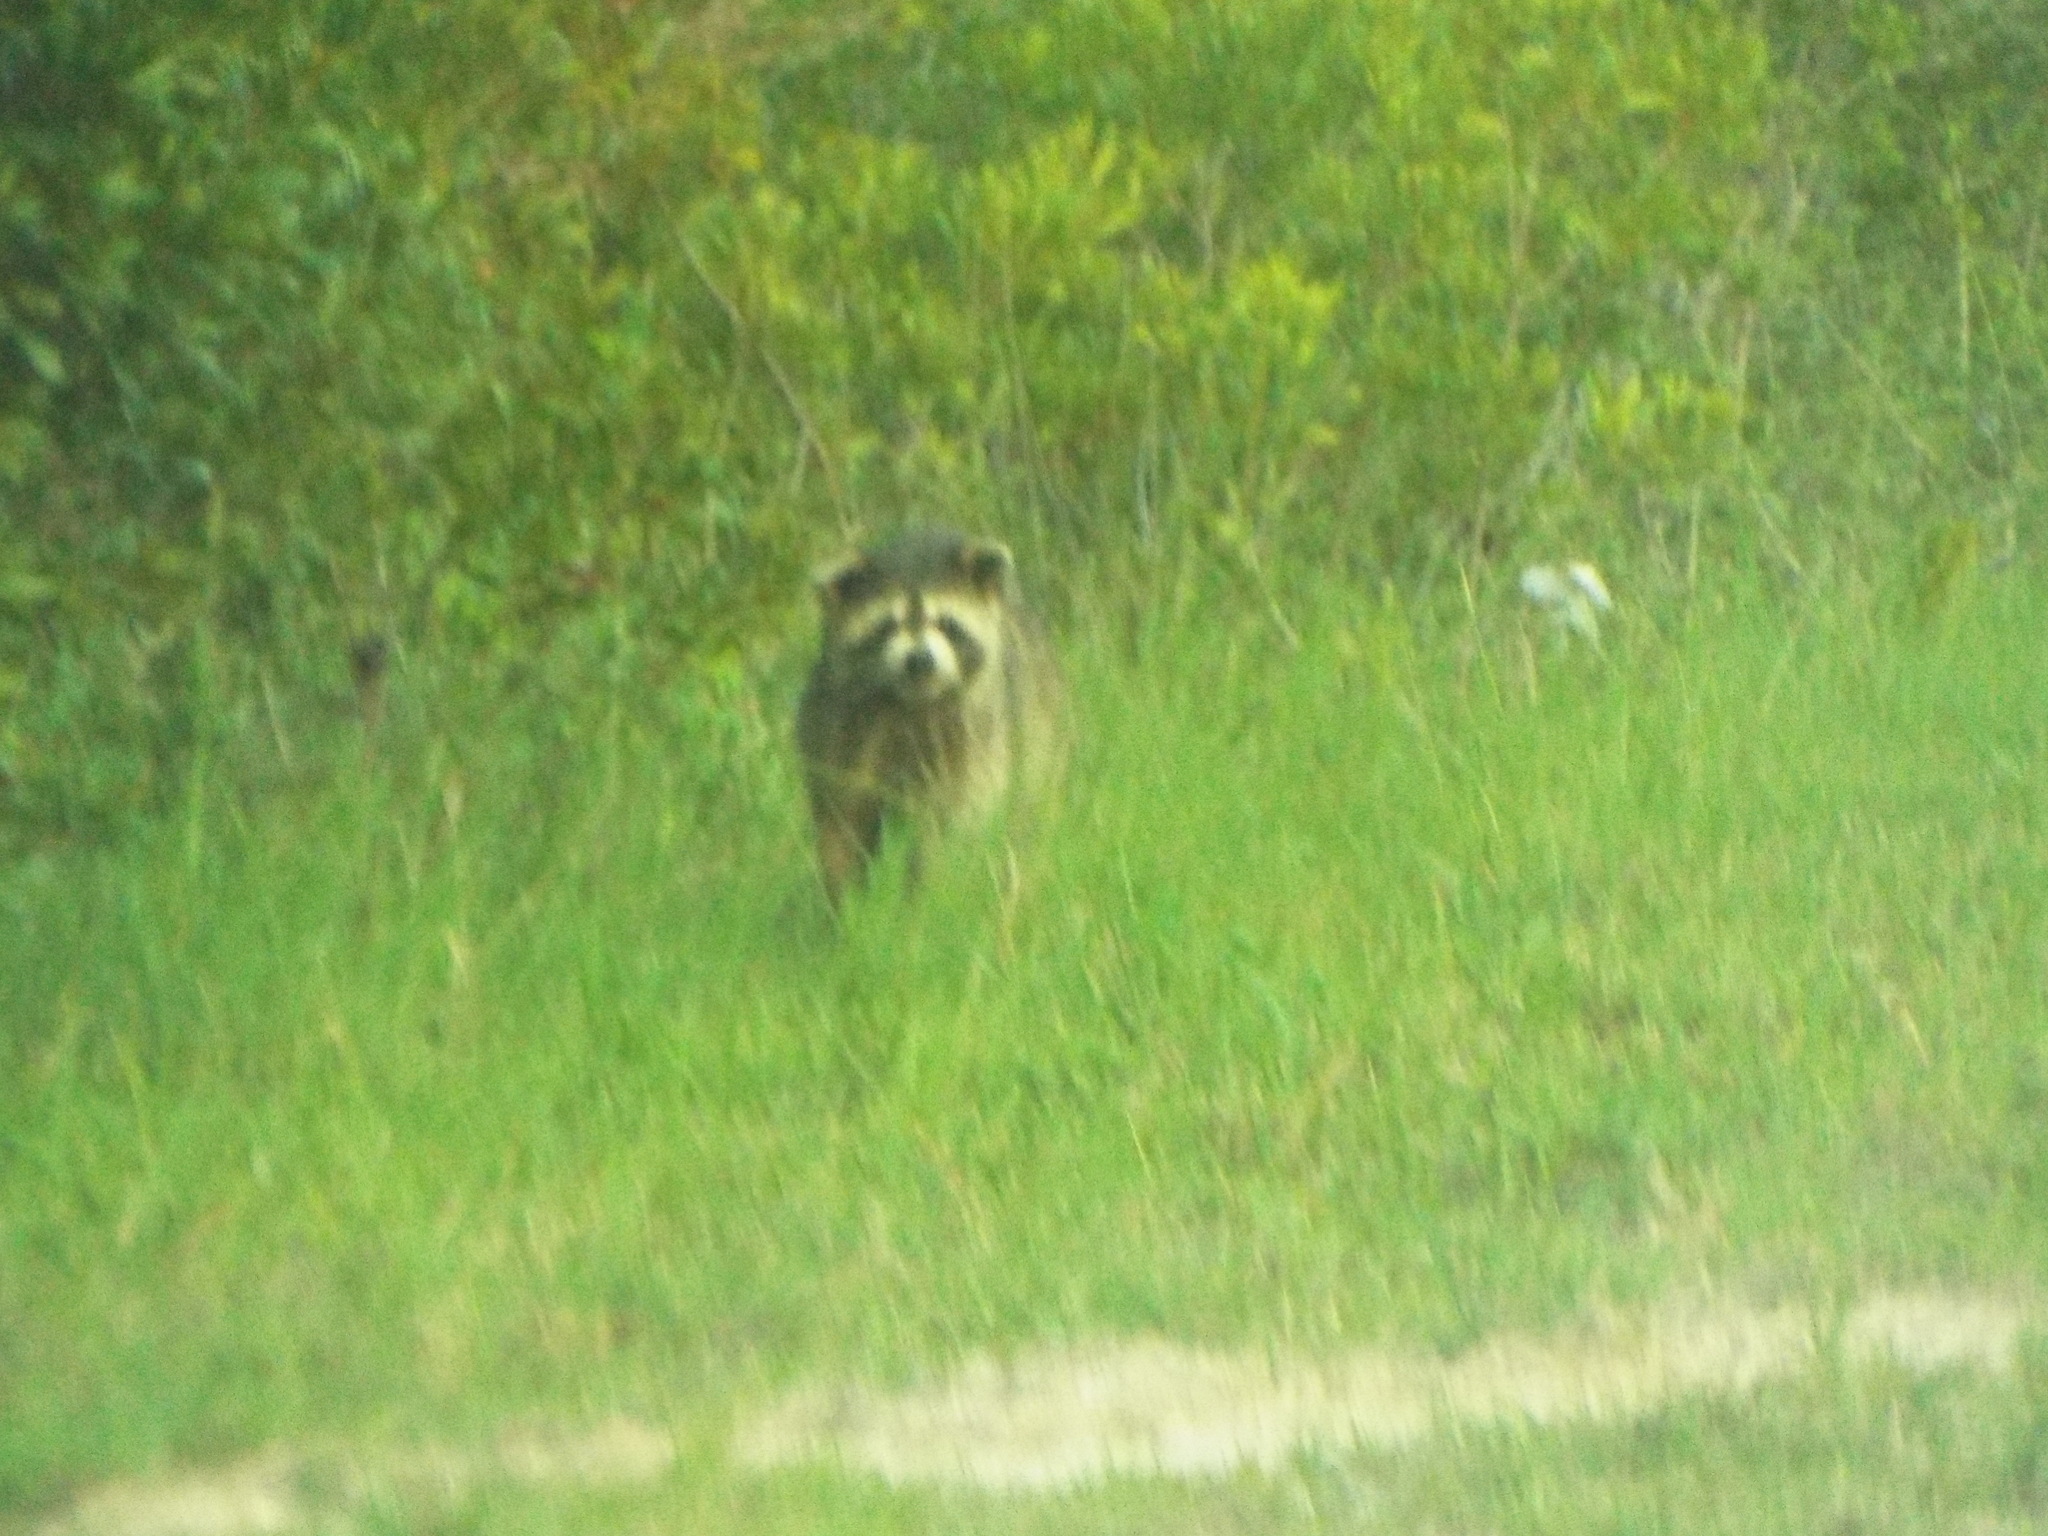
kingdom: Animalia
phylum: Chordata
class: Mammalia
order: Carnivora
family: Procyonidae
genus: Procyon
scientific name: Procyon lotor
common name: Raccoon
